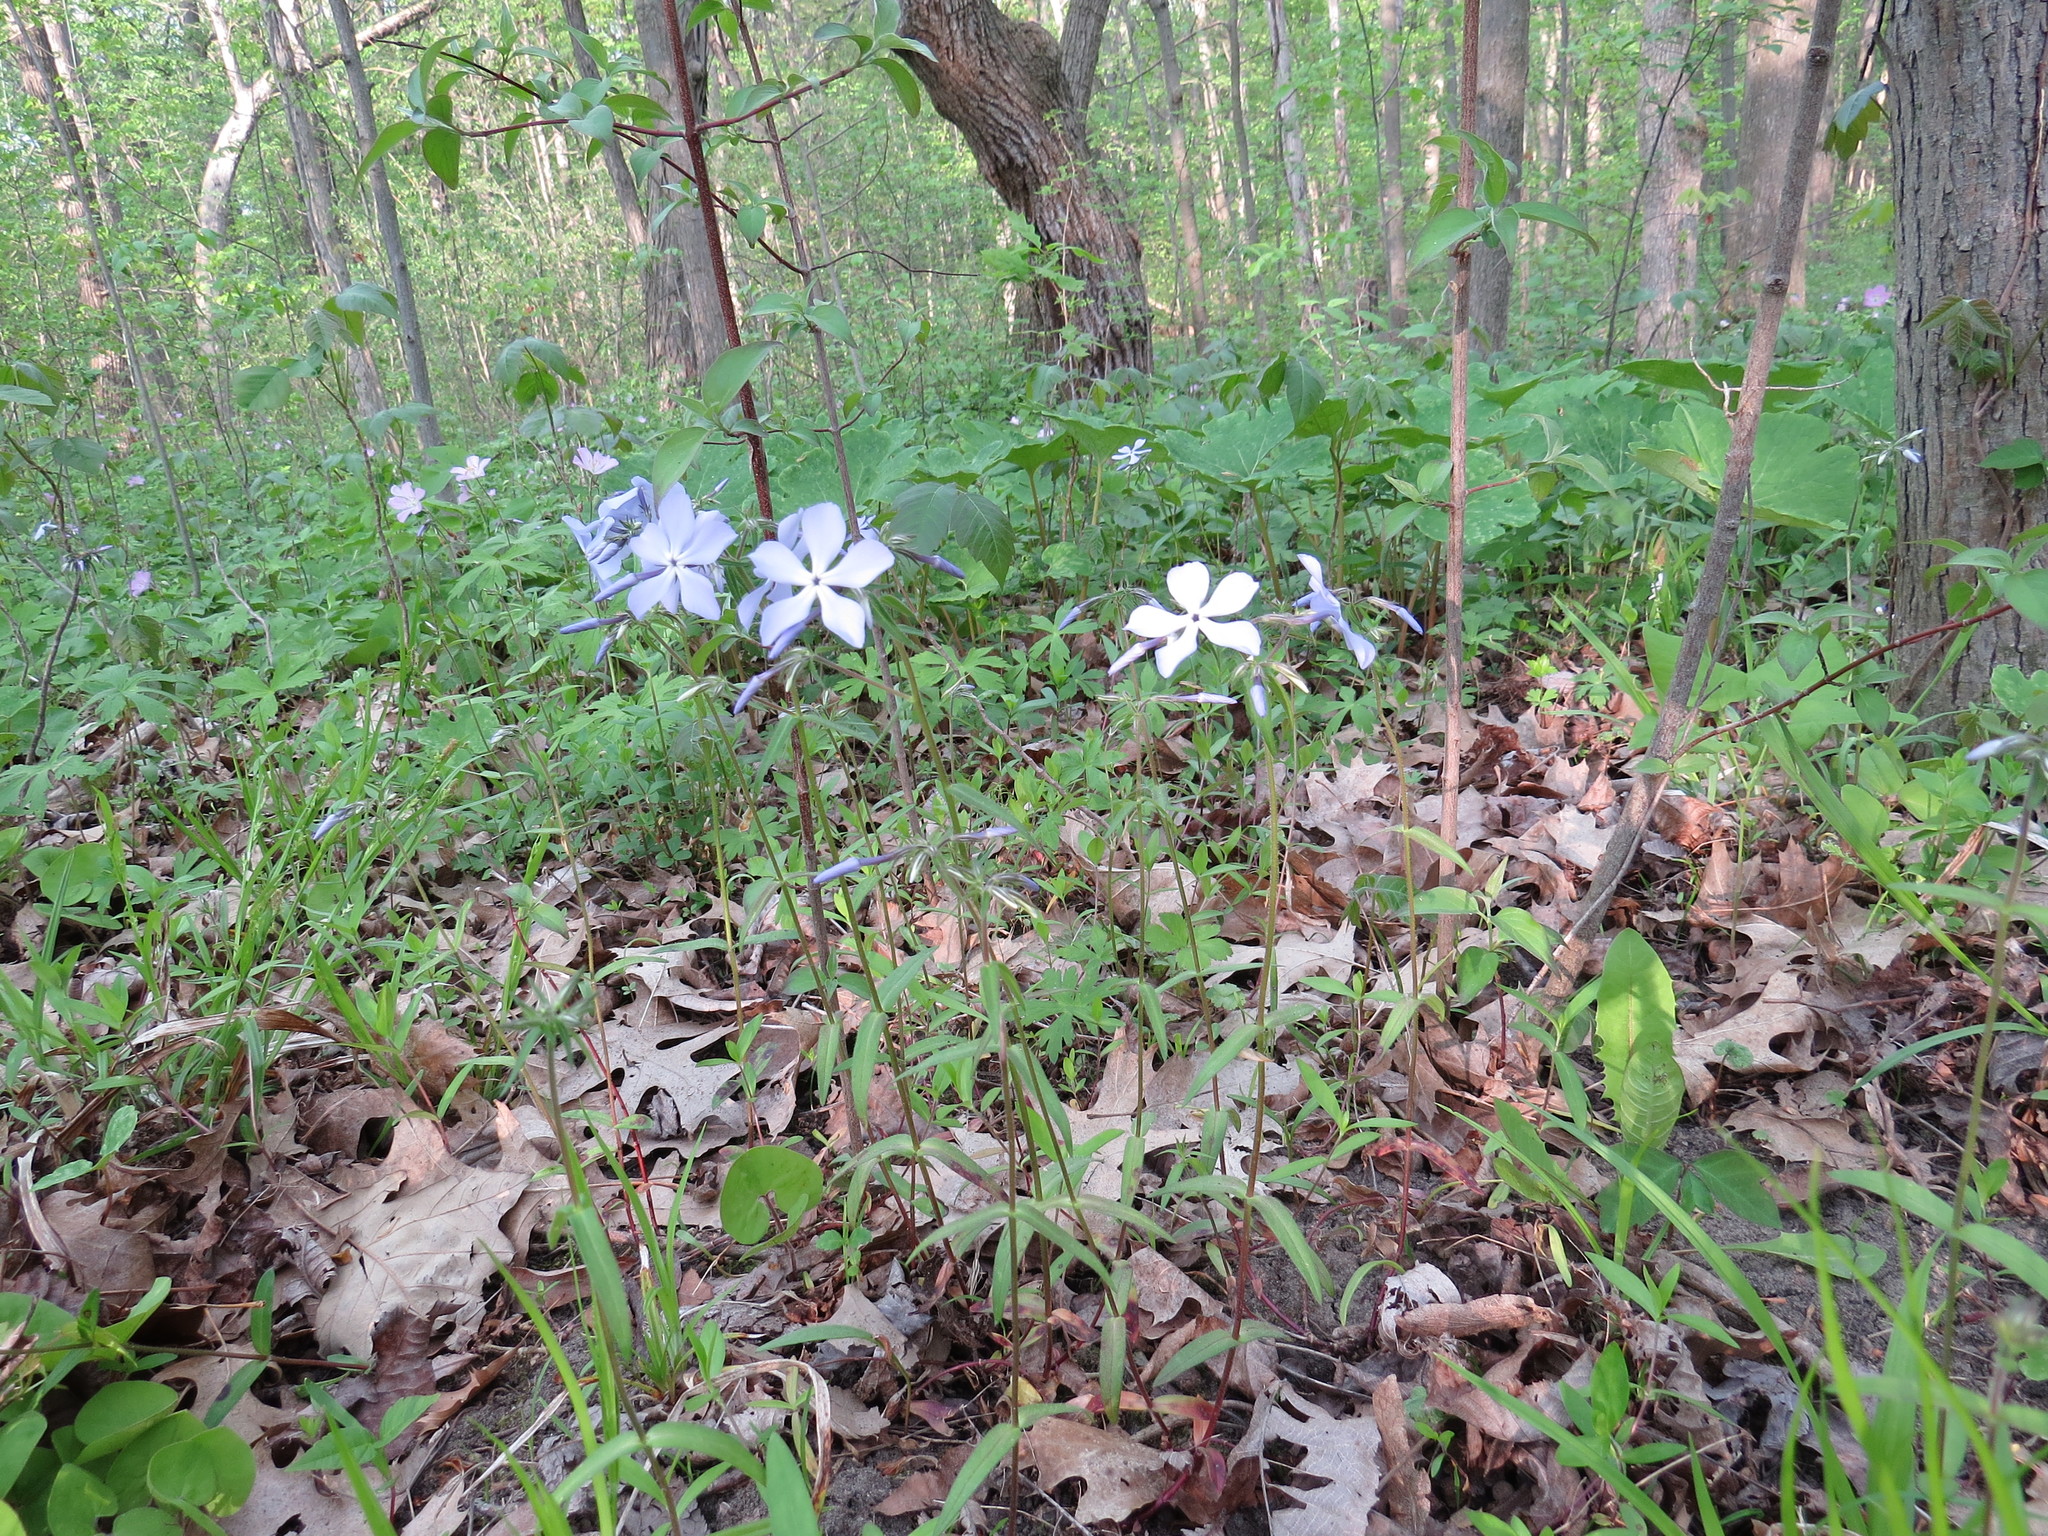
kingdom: Plantae
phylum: Tracheophyta
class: Magnoliopsida
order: Ericales
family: Polemoniaceae
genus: Phlox
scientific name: Phlox divaricata
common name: Blue phlox
